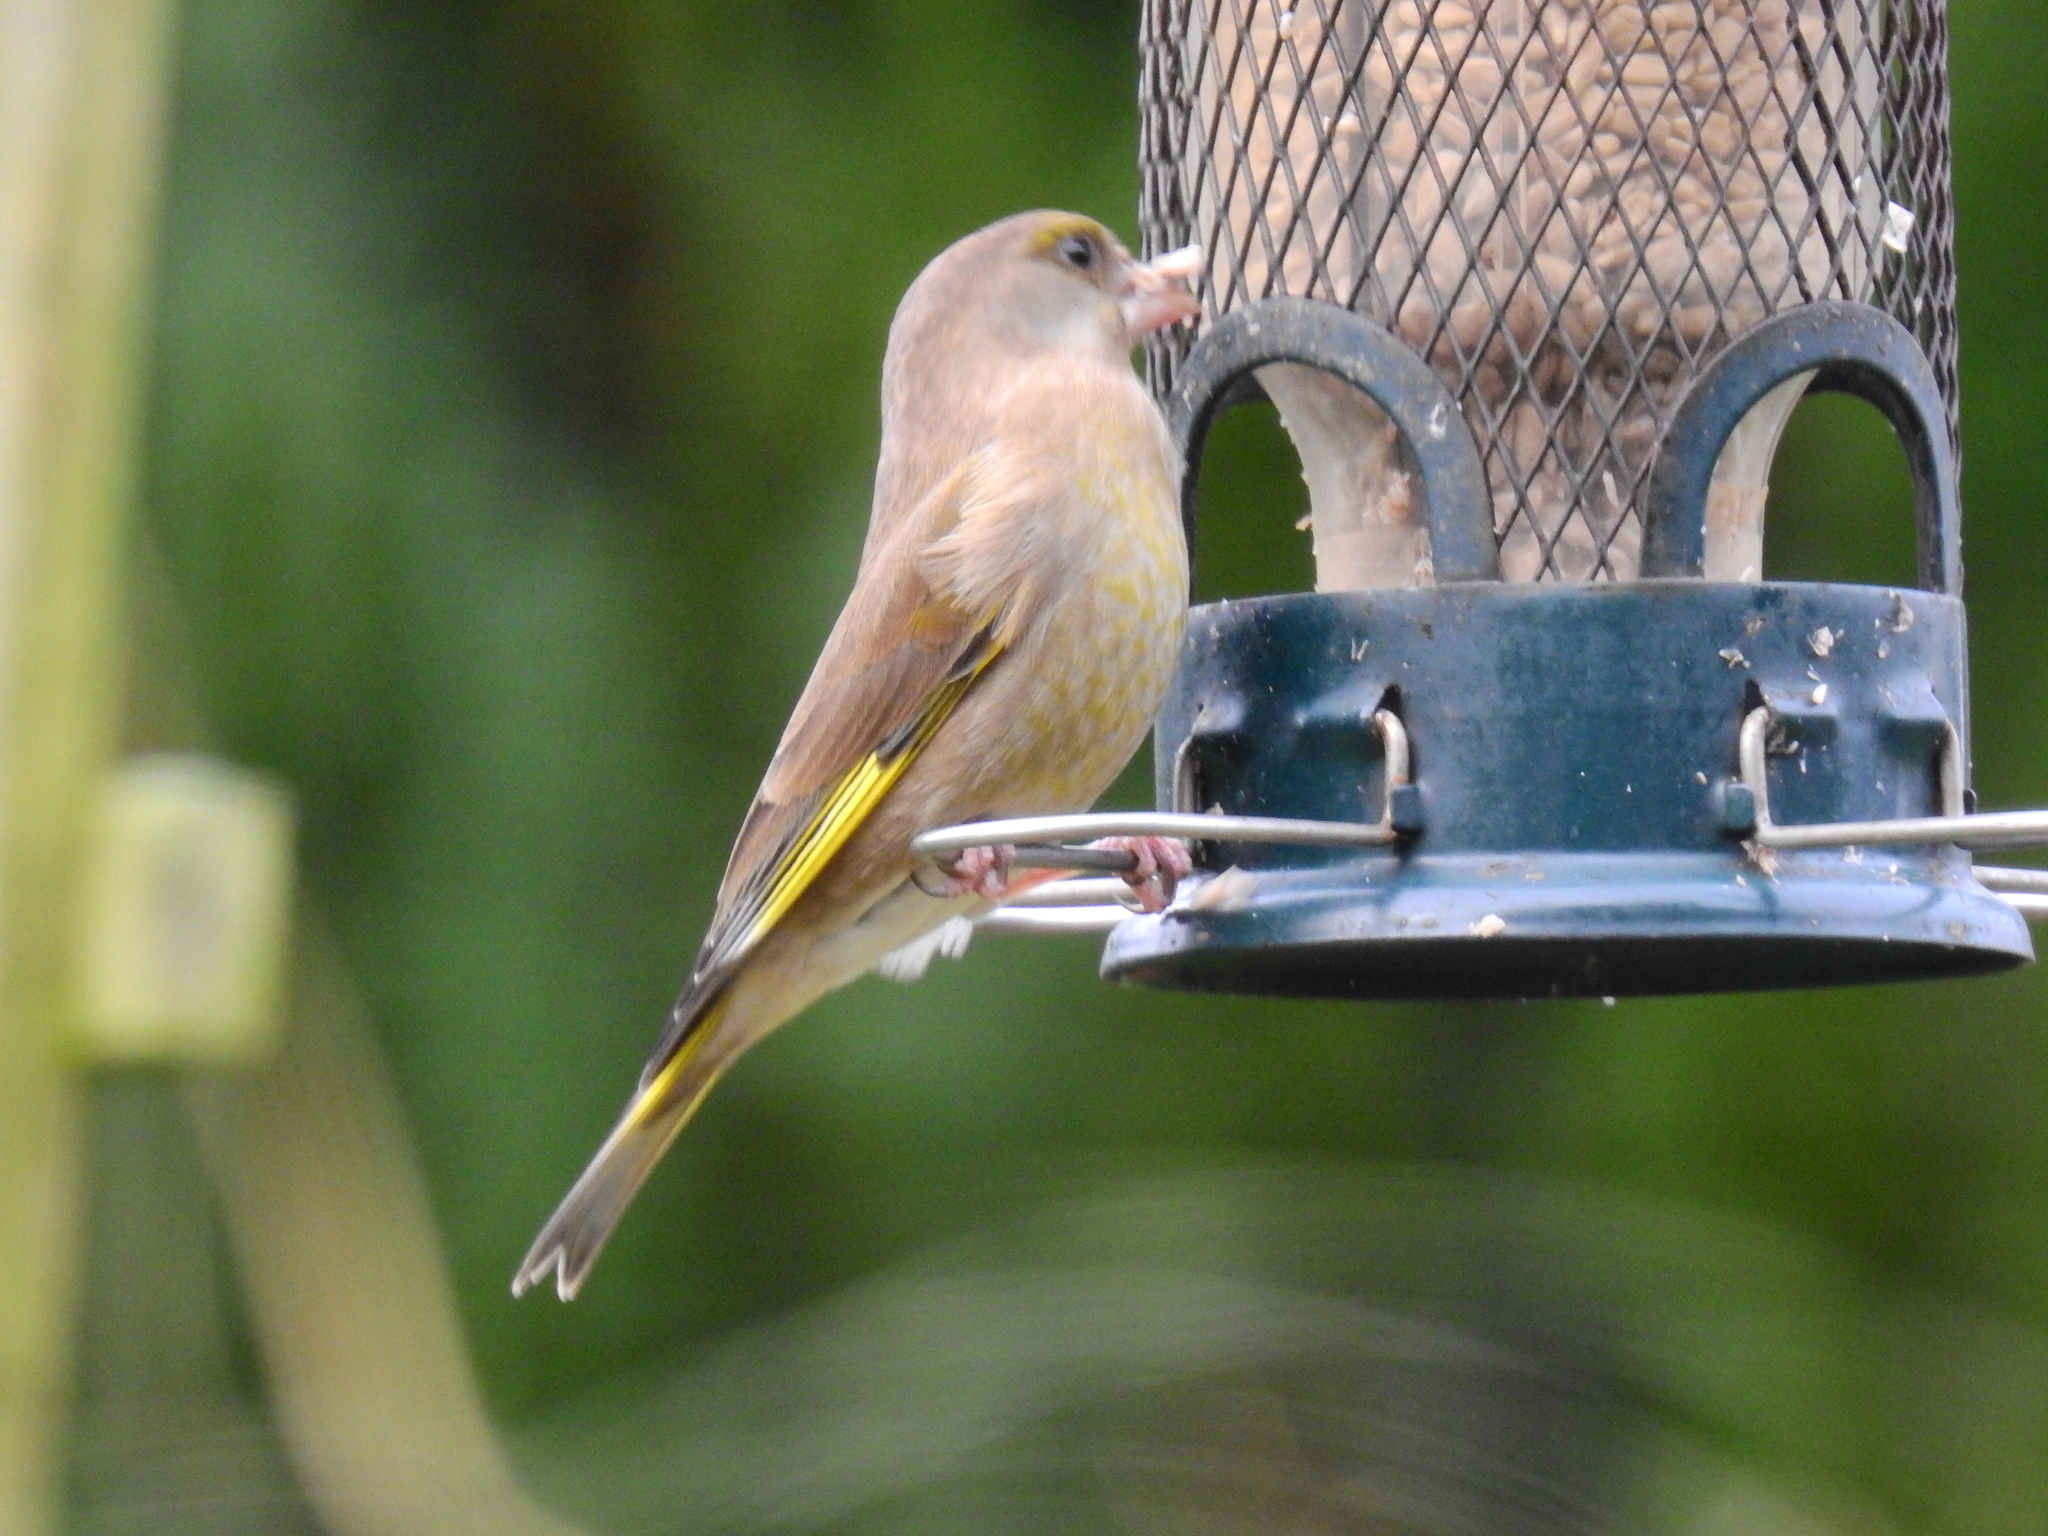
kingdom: Plantae
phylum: Tracheophyta
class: Liliopsida
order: Poales
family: Poaceae
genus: Chloris
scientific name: Chloris chloris
